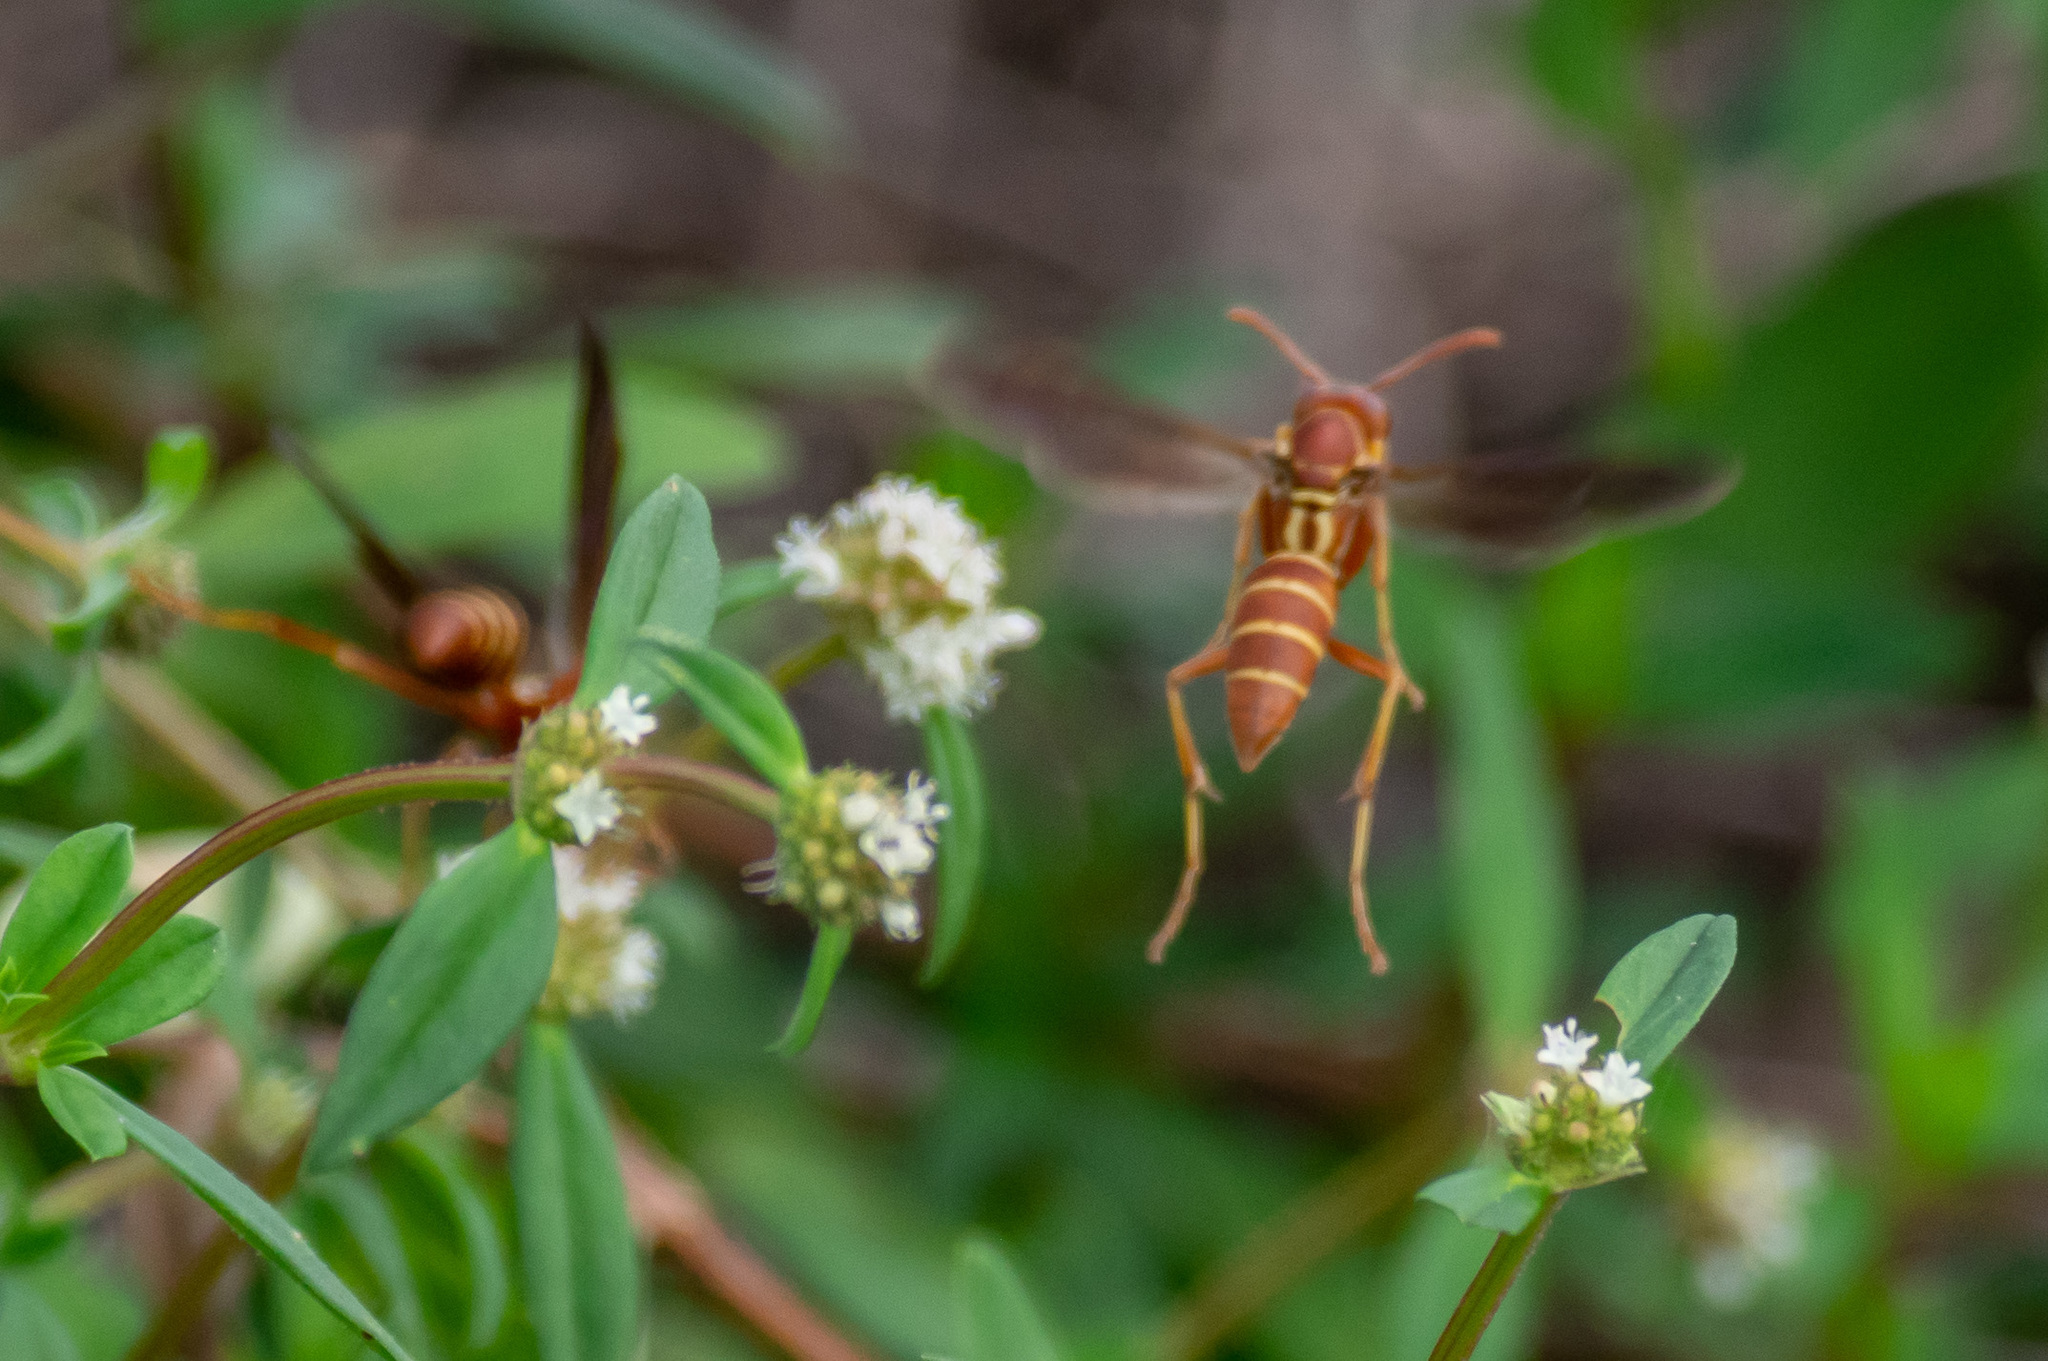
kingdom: Animalia
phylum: Arthropoda
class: Insecta
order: Hymenoptera
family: Eumenidae
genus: Polistes
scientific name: Polistes bellicosus
